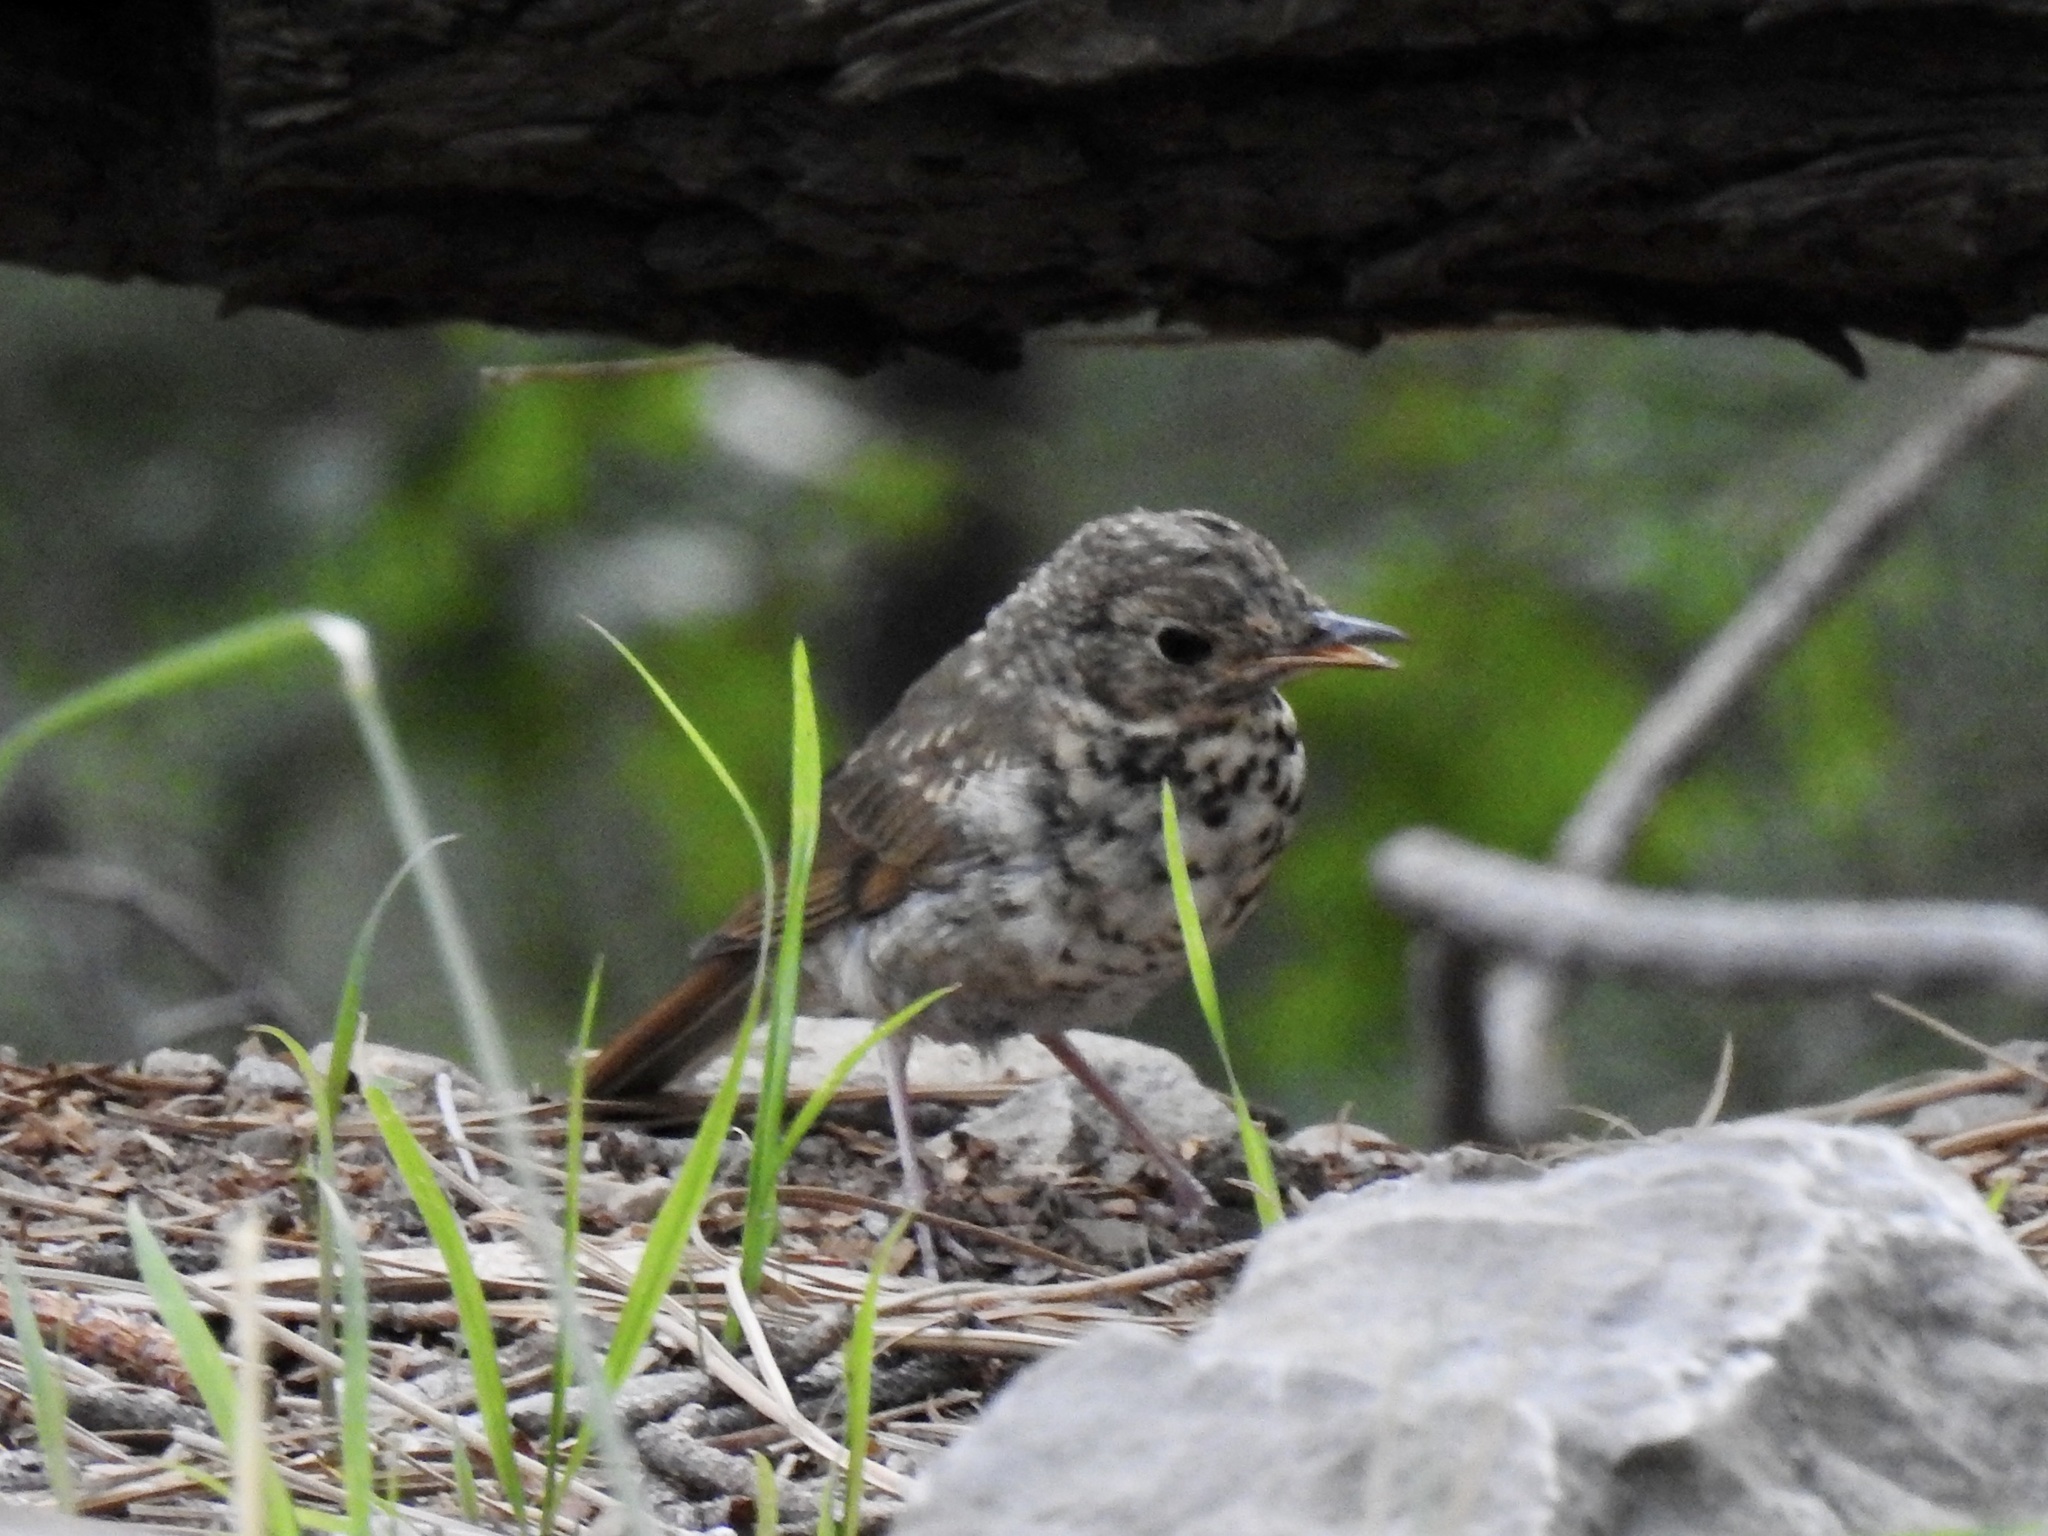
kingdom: Animalia
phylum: Chordata
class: Aves
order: Passeriformes
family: Turdidae
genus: Catharus
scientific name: Catharus guttatus
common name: Hermit thrush
